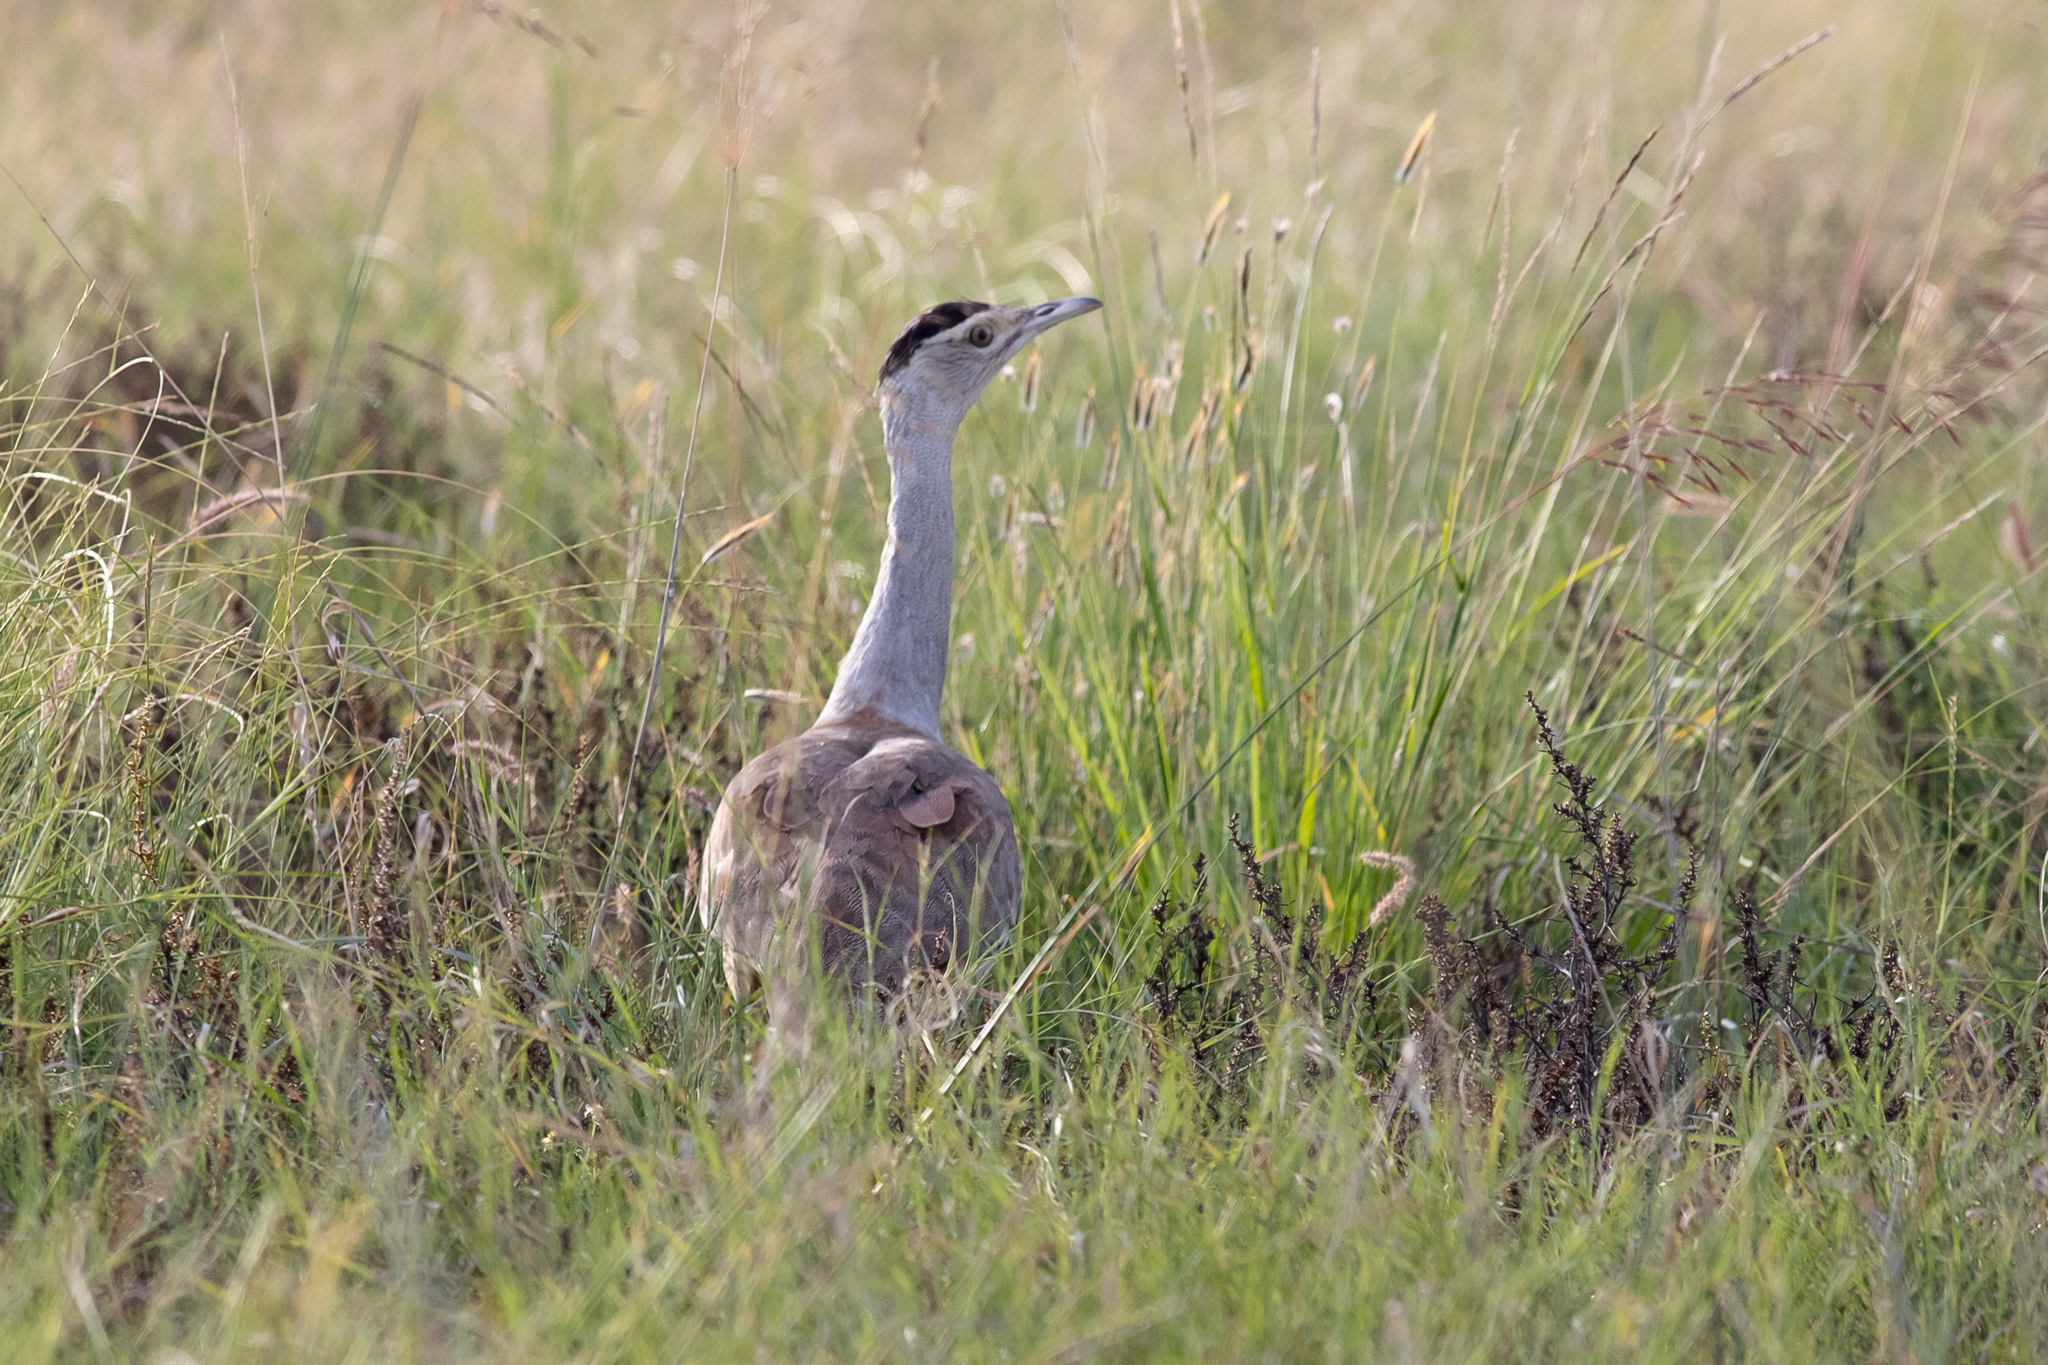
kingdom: Animalia
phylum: Chordata
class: Aves
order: Otidiformes
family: Otididae
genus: Ardeotis
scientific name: Ardeotis australis
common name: Australian bustard
